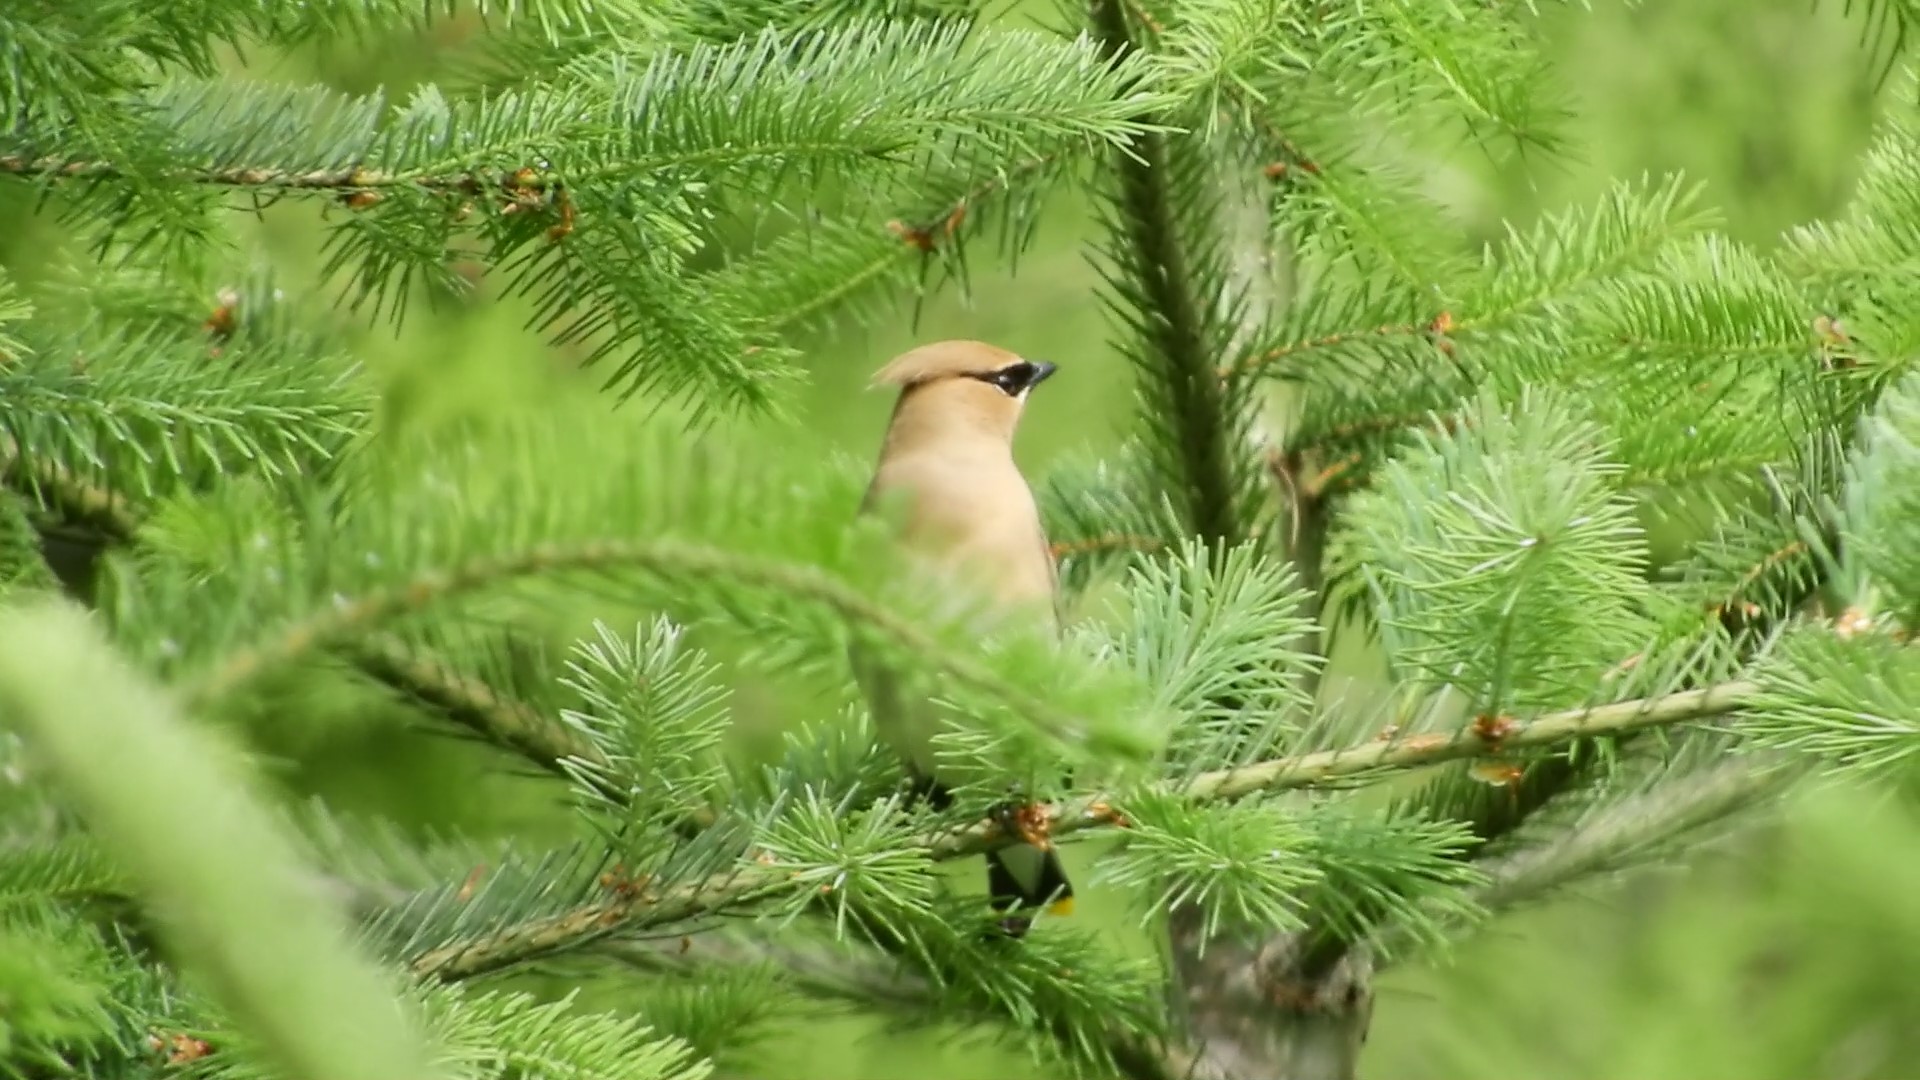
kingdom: Animalia
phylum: Chordata
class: Aves
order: Passeriformes
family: Bombycillidae
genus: Bombycilla
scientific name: Bombycilla cedrorum
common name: Cedar waxwing
